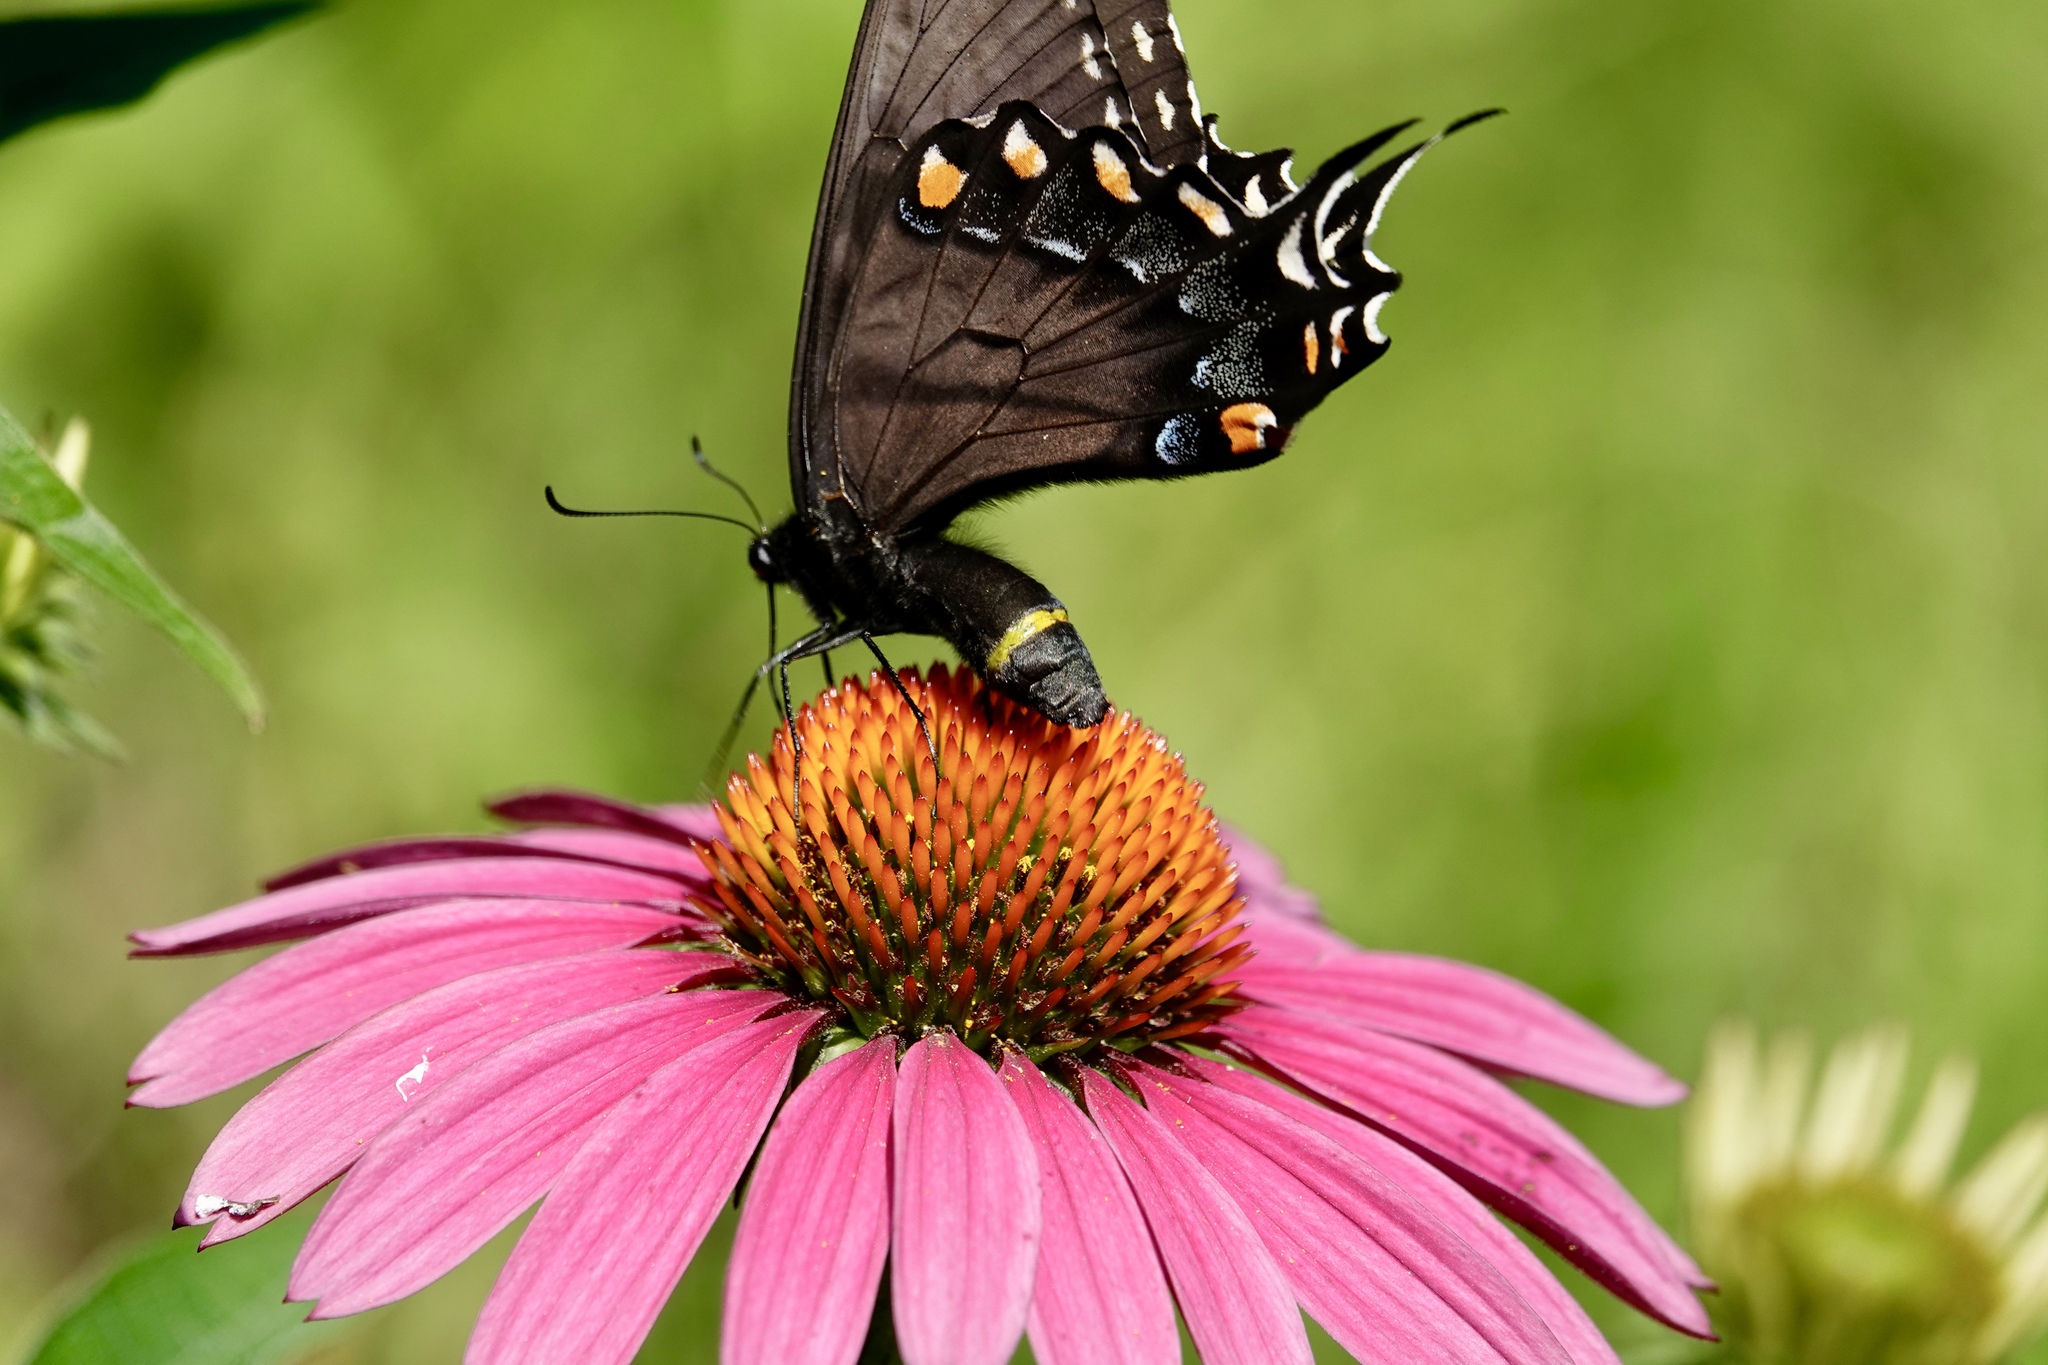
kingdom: Animalia
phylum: Arthropoda
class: Insecta
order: Lepidoptera
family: Papilionidae
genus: Papilio
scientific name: Papilio glaucus
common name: Tiger swallowtail
